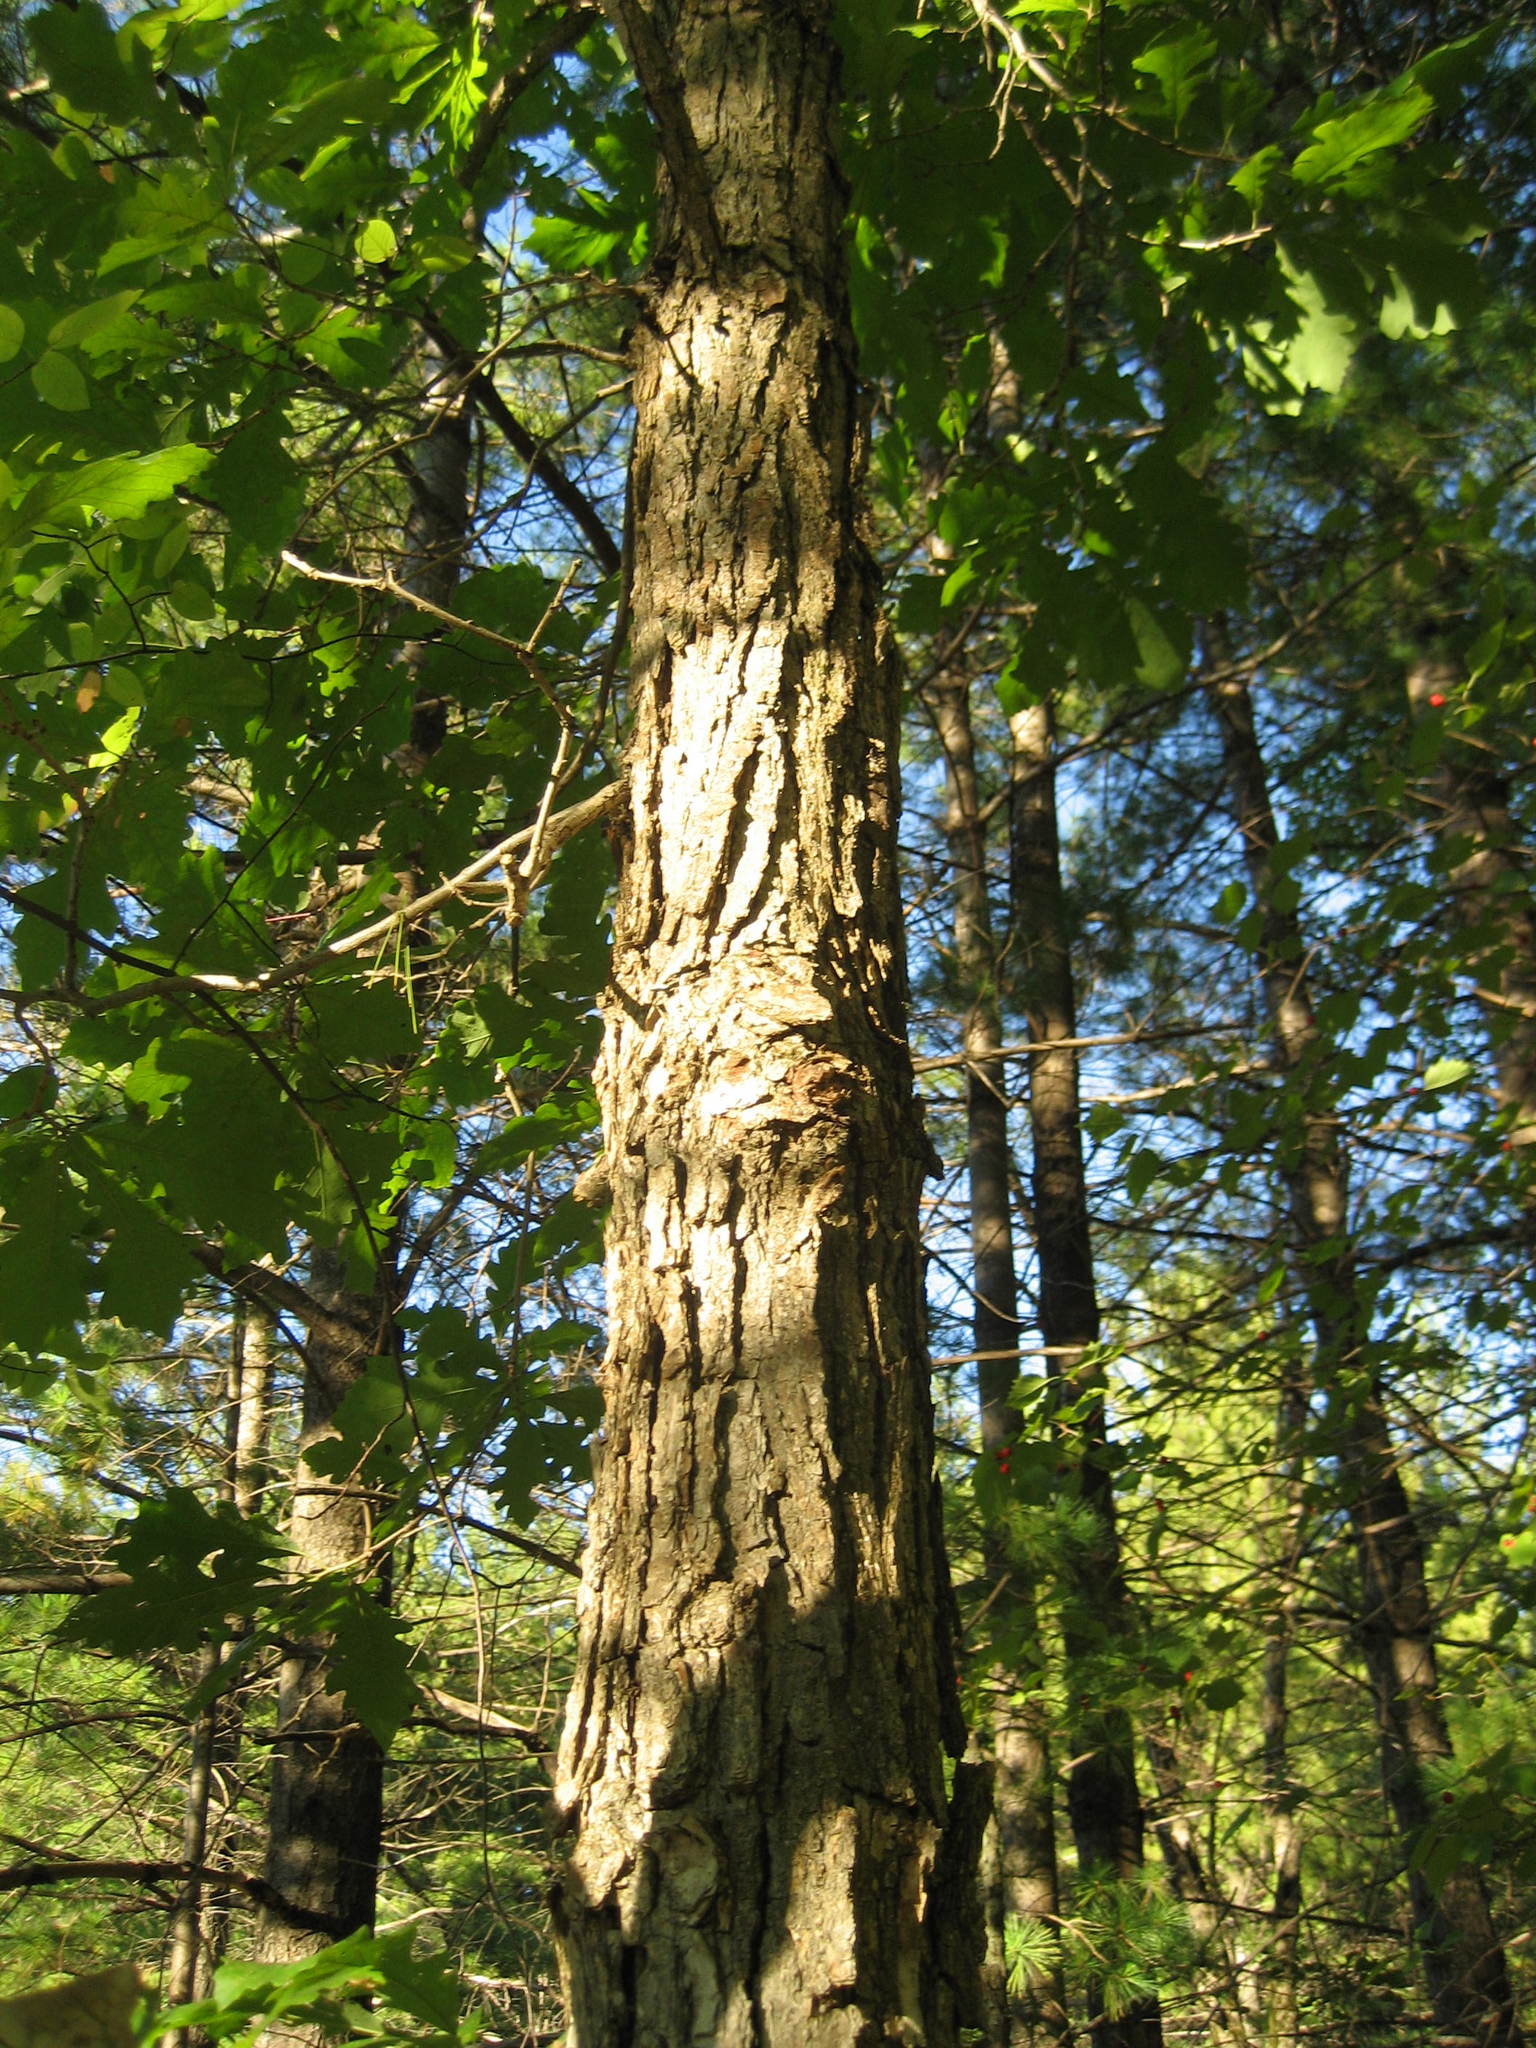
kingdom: Plantae
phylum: Tracheophyta
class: Magnoliopsida
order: Fagales
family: Fagaceae
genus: Quercus
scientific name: Quercus macrocarpa
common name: Bur oak
